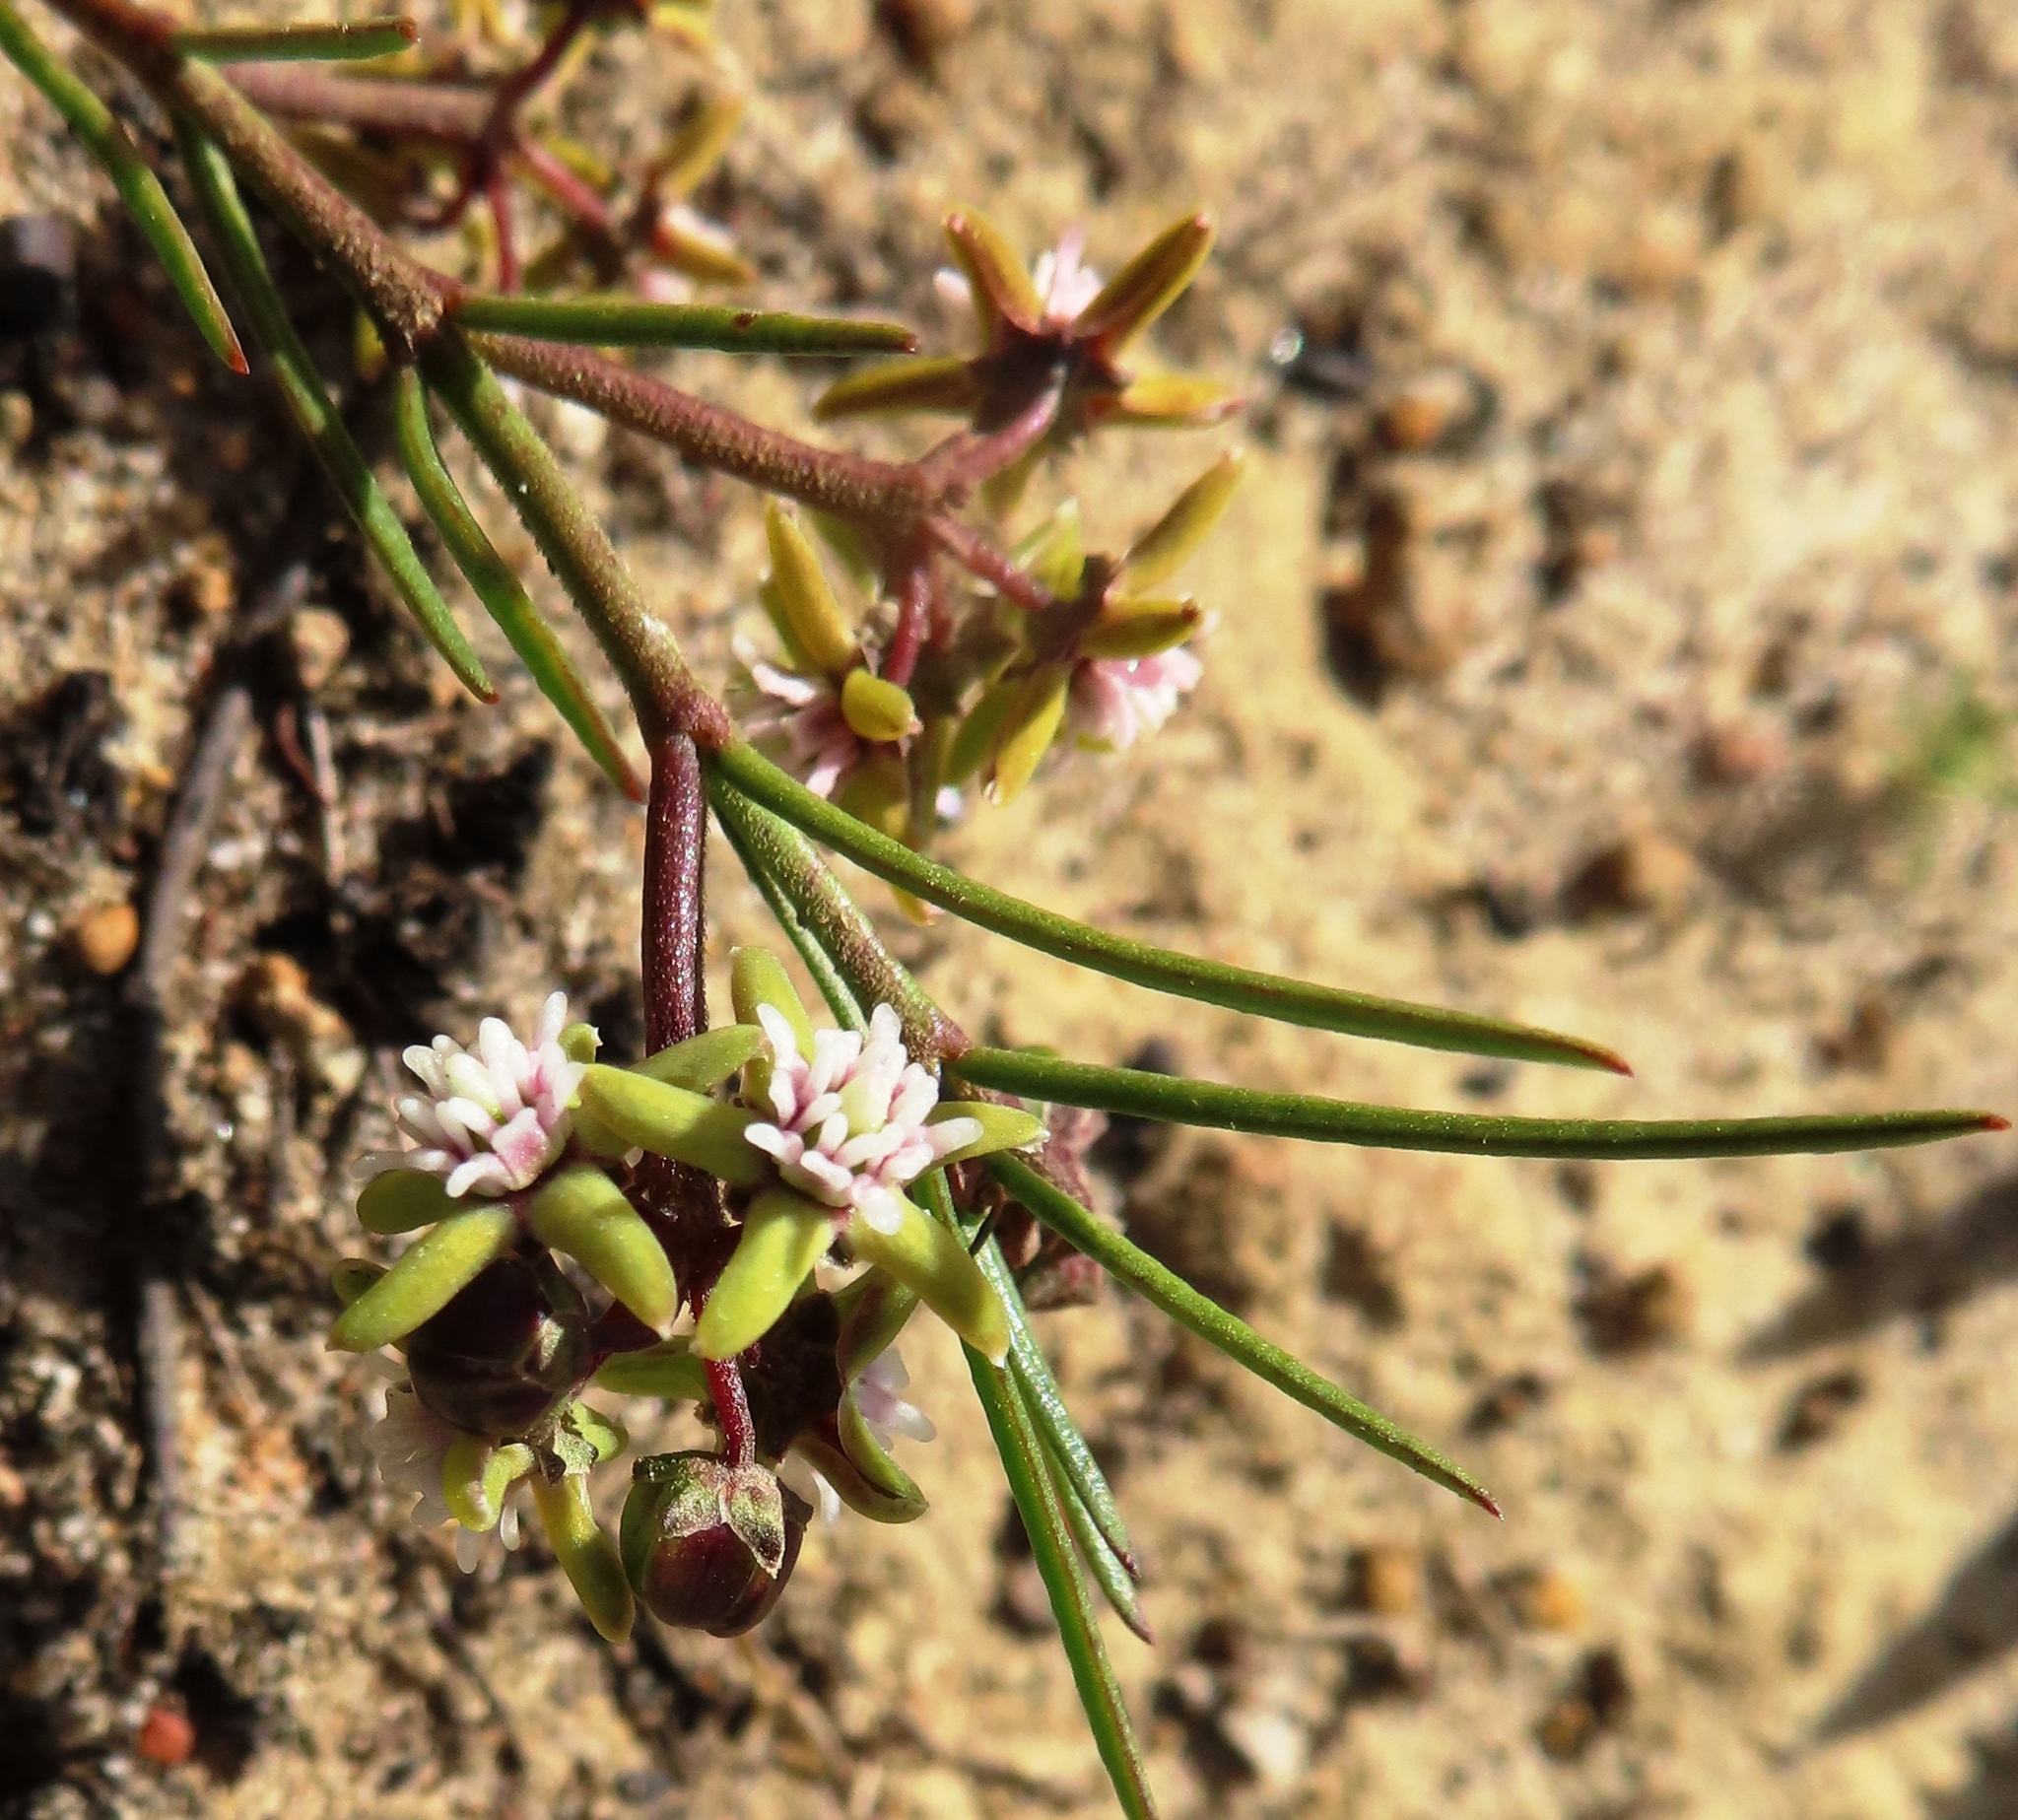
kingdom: Plantae
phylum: Tracheophyta
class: Magnoliopsida
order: Gentianales
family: Apocynaceae
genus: Eustegia
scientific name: Eustegia minuta
